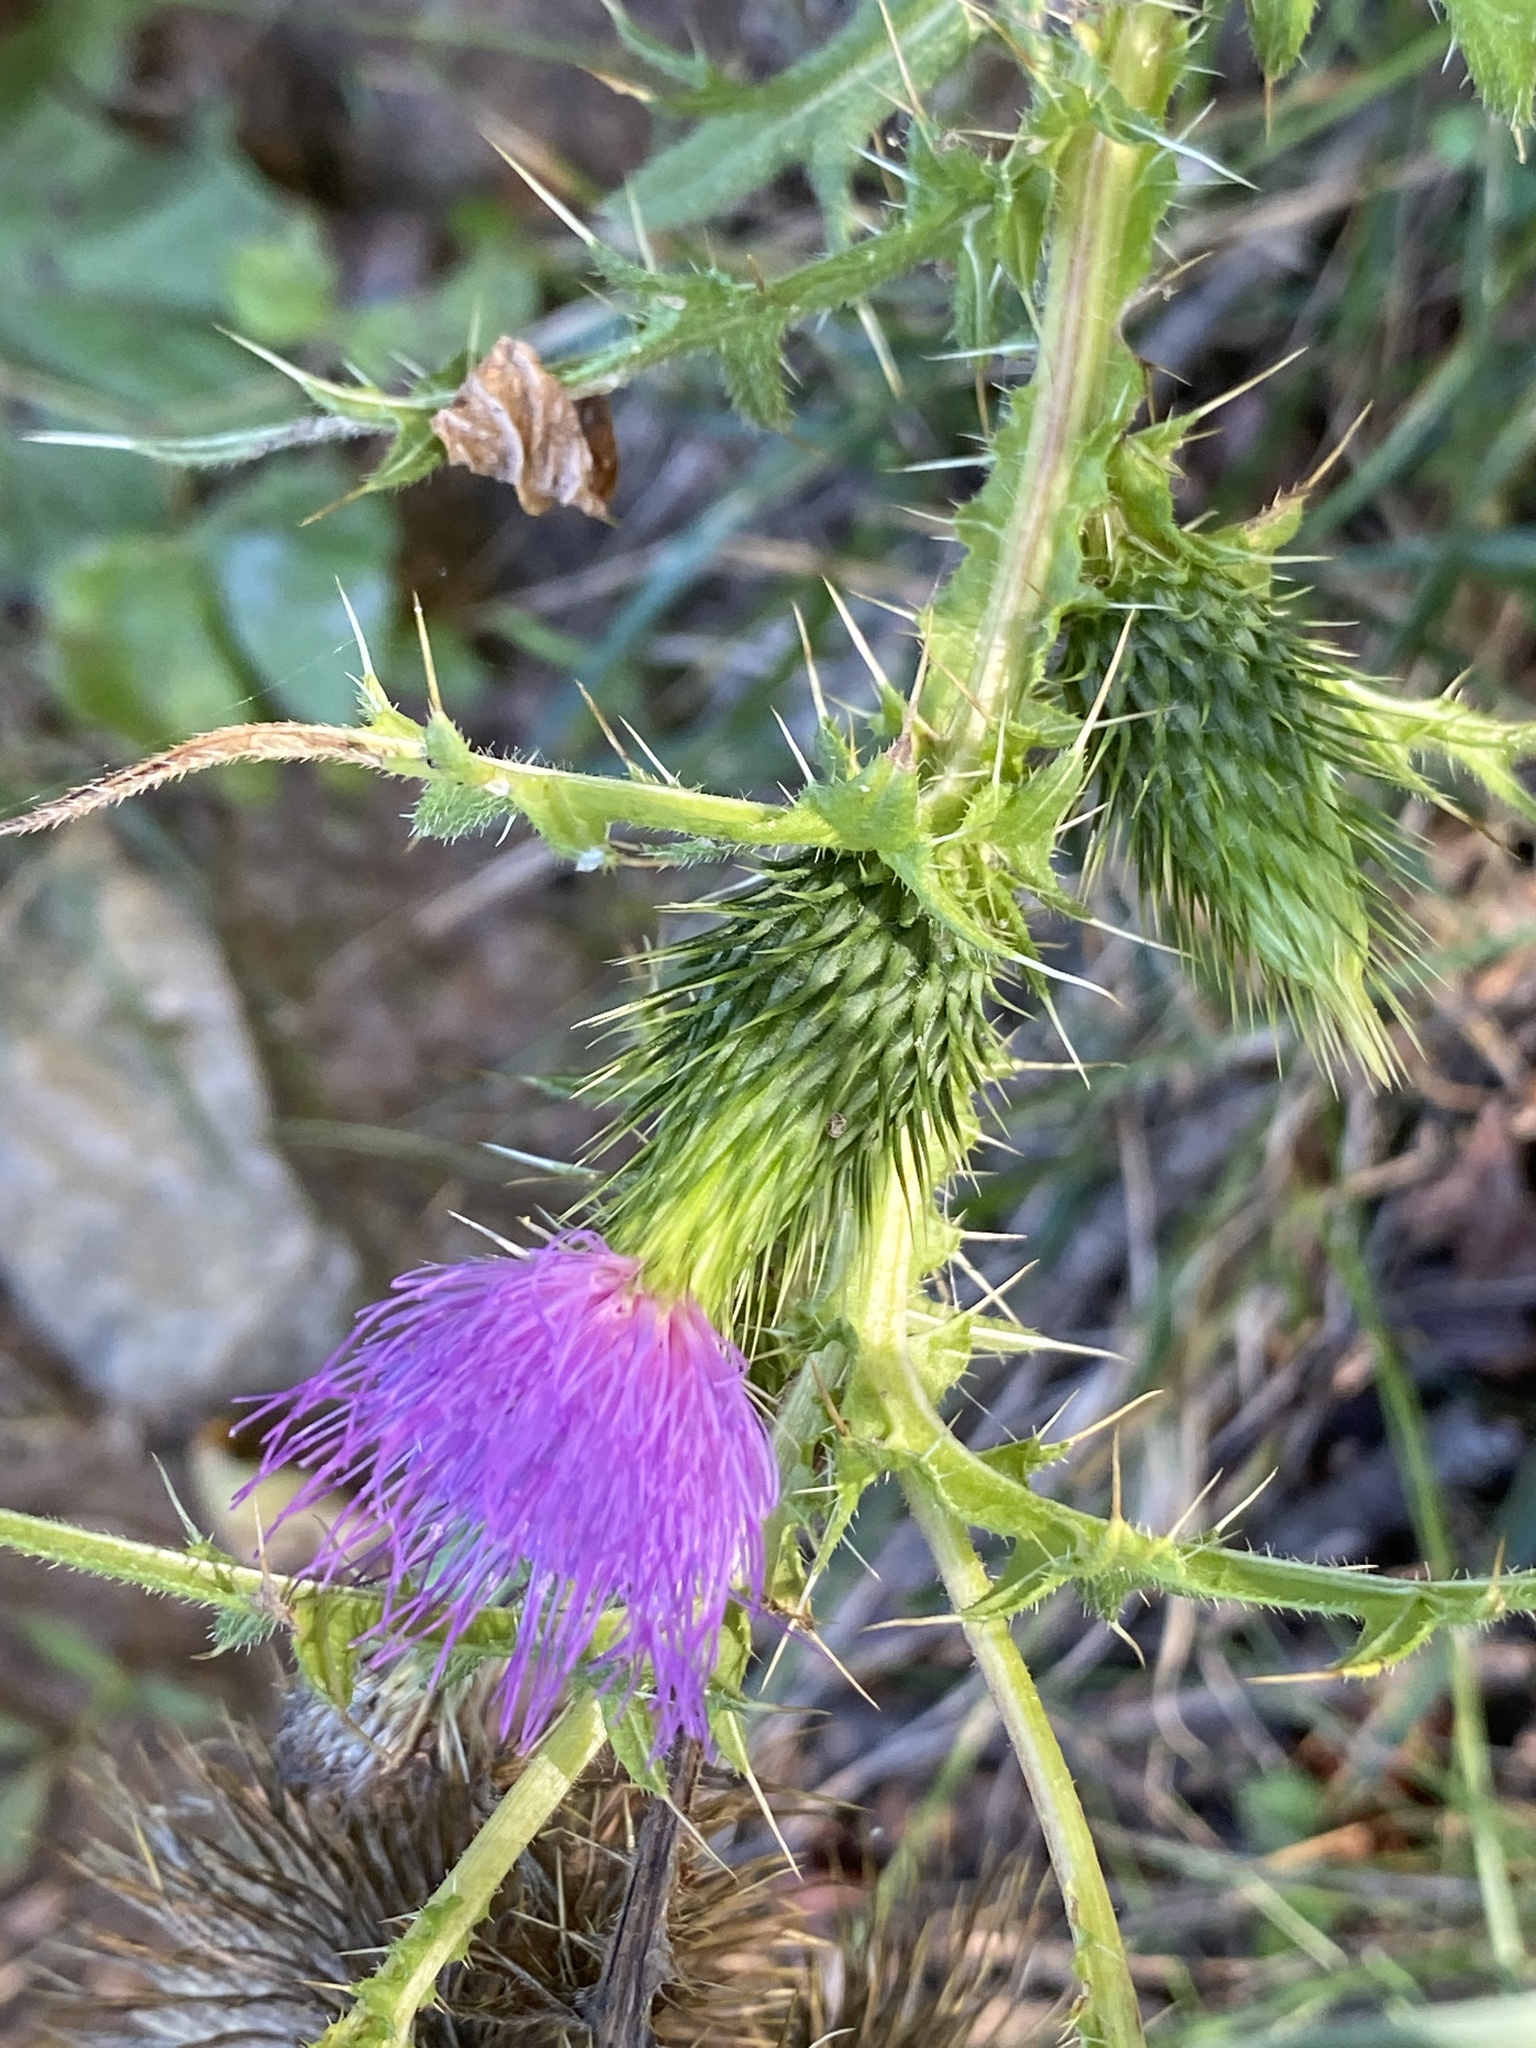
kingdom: Plantae
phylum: Tracheophyta
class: Magnoliopsida
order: Asterales
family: Asteraceae
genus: Cirsium
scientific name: Cirsium vulgare
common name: Bull thistle
